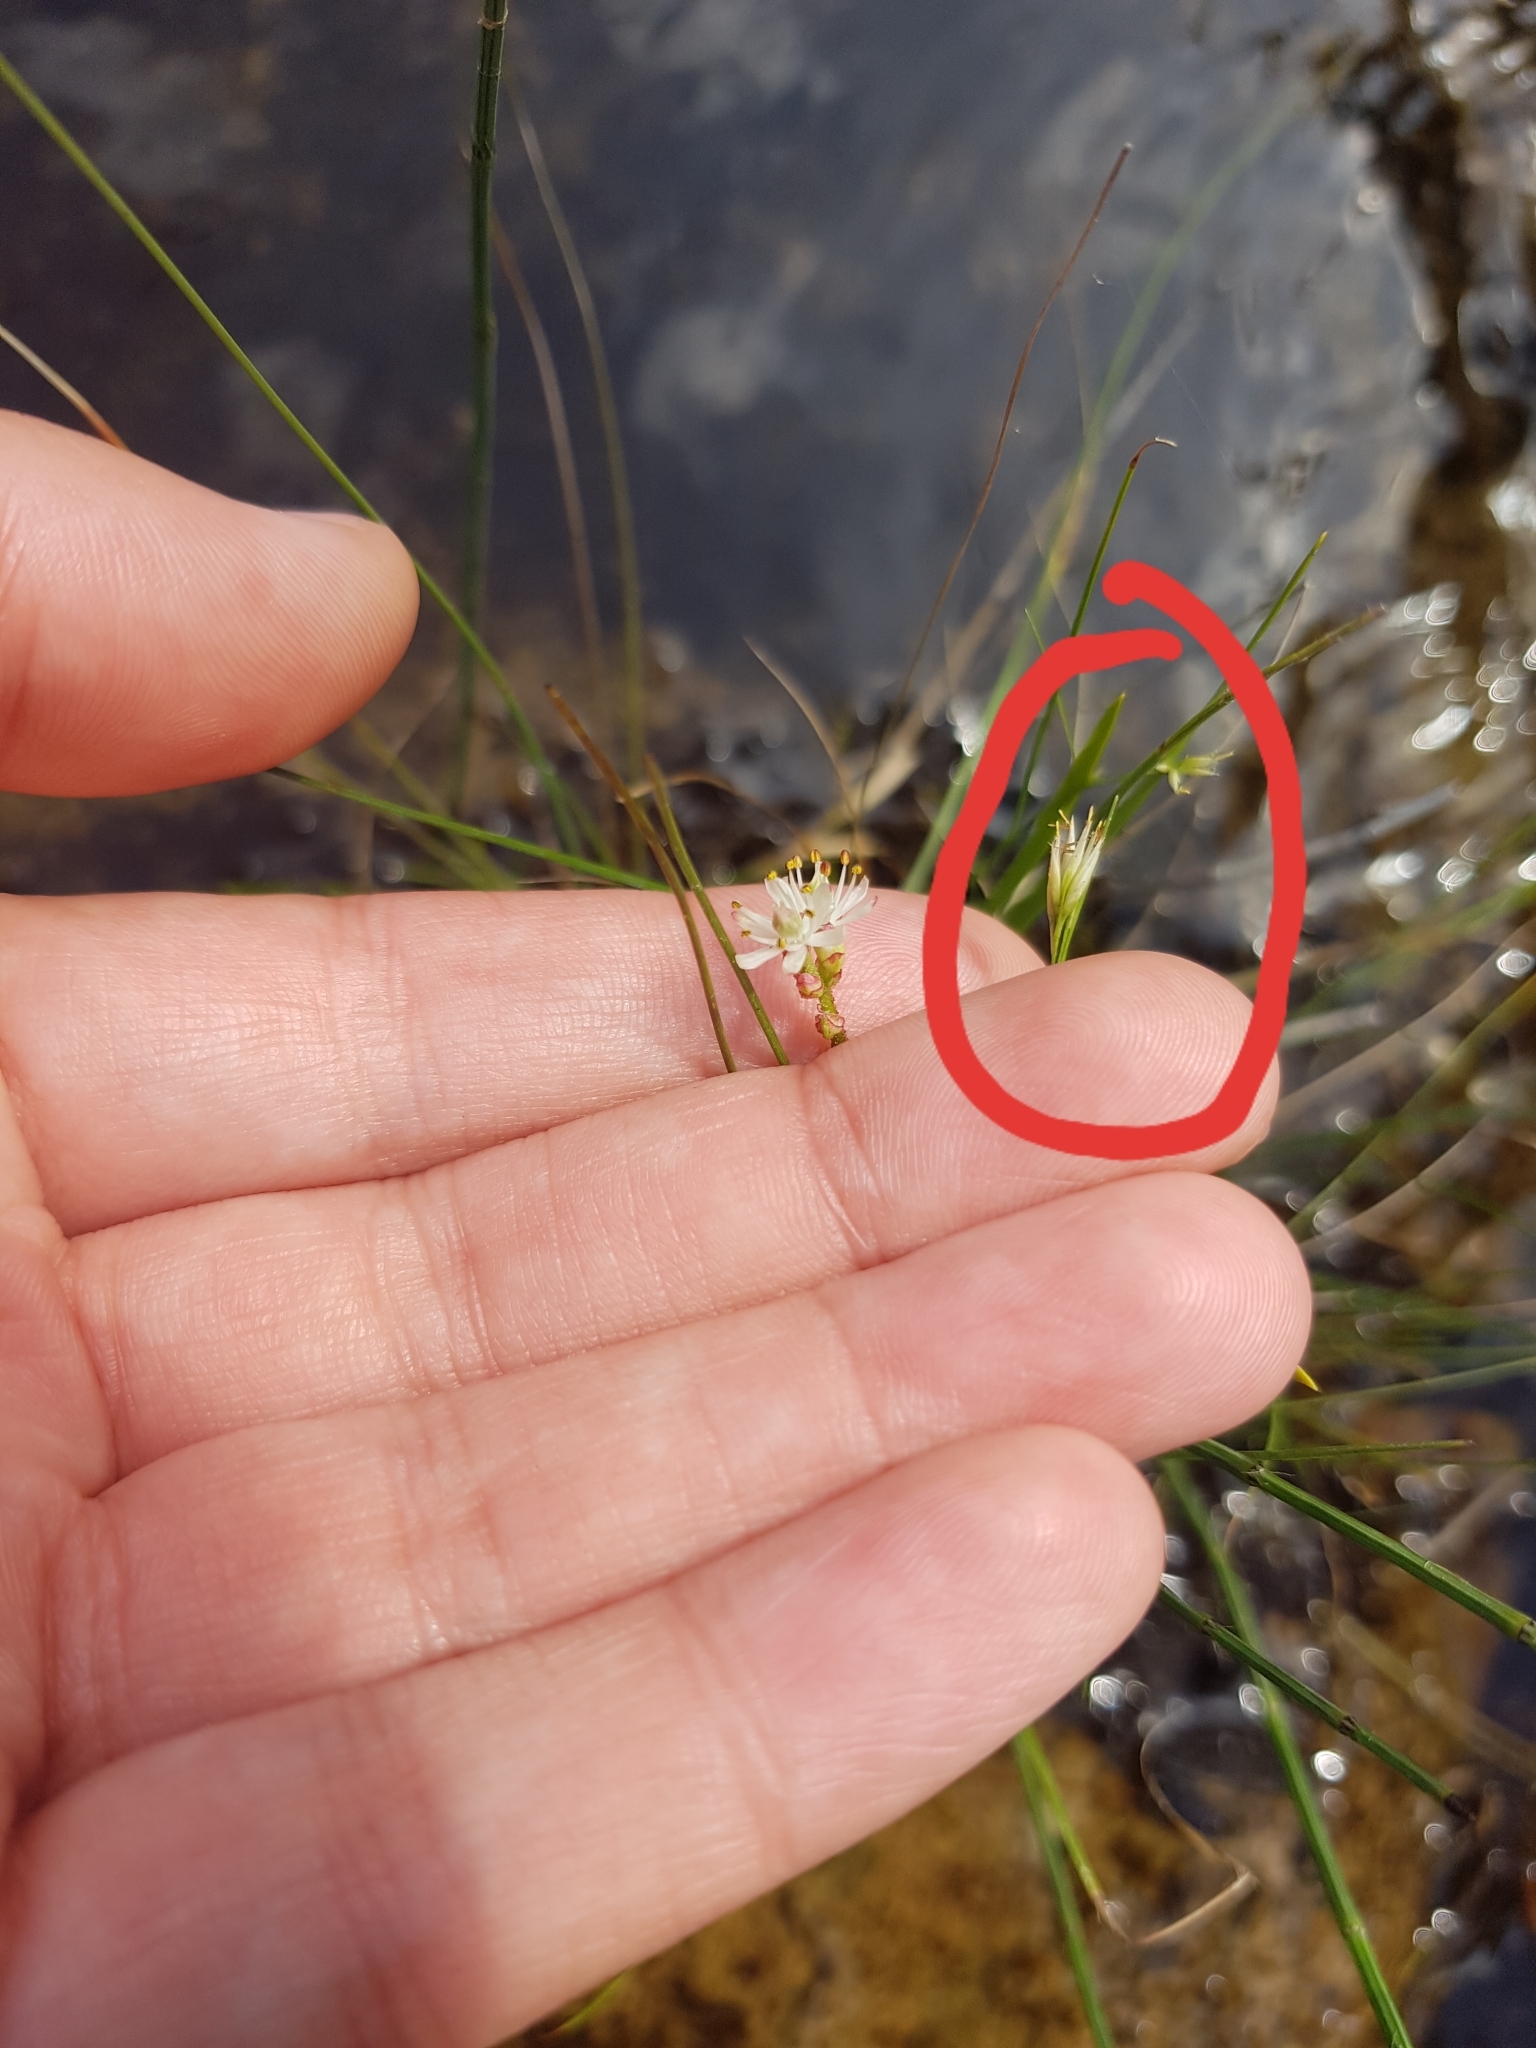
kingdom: Plantae
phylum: Tracheophyta
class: Liliopsida
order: Poales
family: Cyperaceae
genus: Rhynchospora
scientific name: Rhynchospora alba
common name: White beak-sedge
